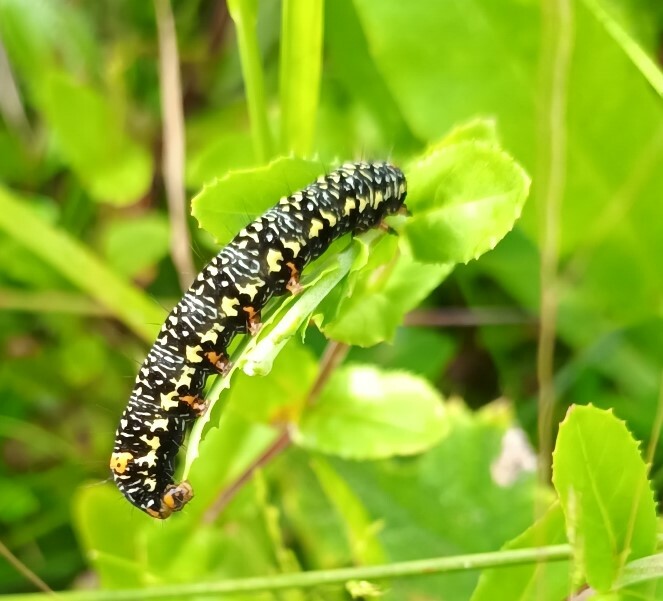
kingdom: Animalia
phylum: Arthropoda
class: Insecta
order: Lepidoptera
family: Noctuidae
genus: Phalaenoides
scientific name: Phalaenoides tristifica
